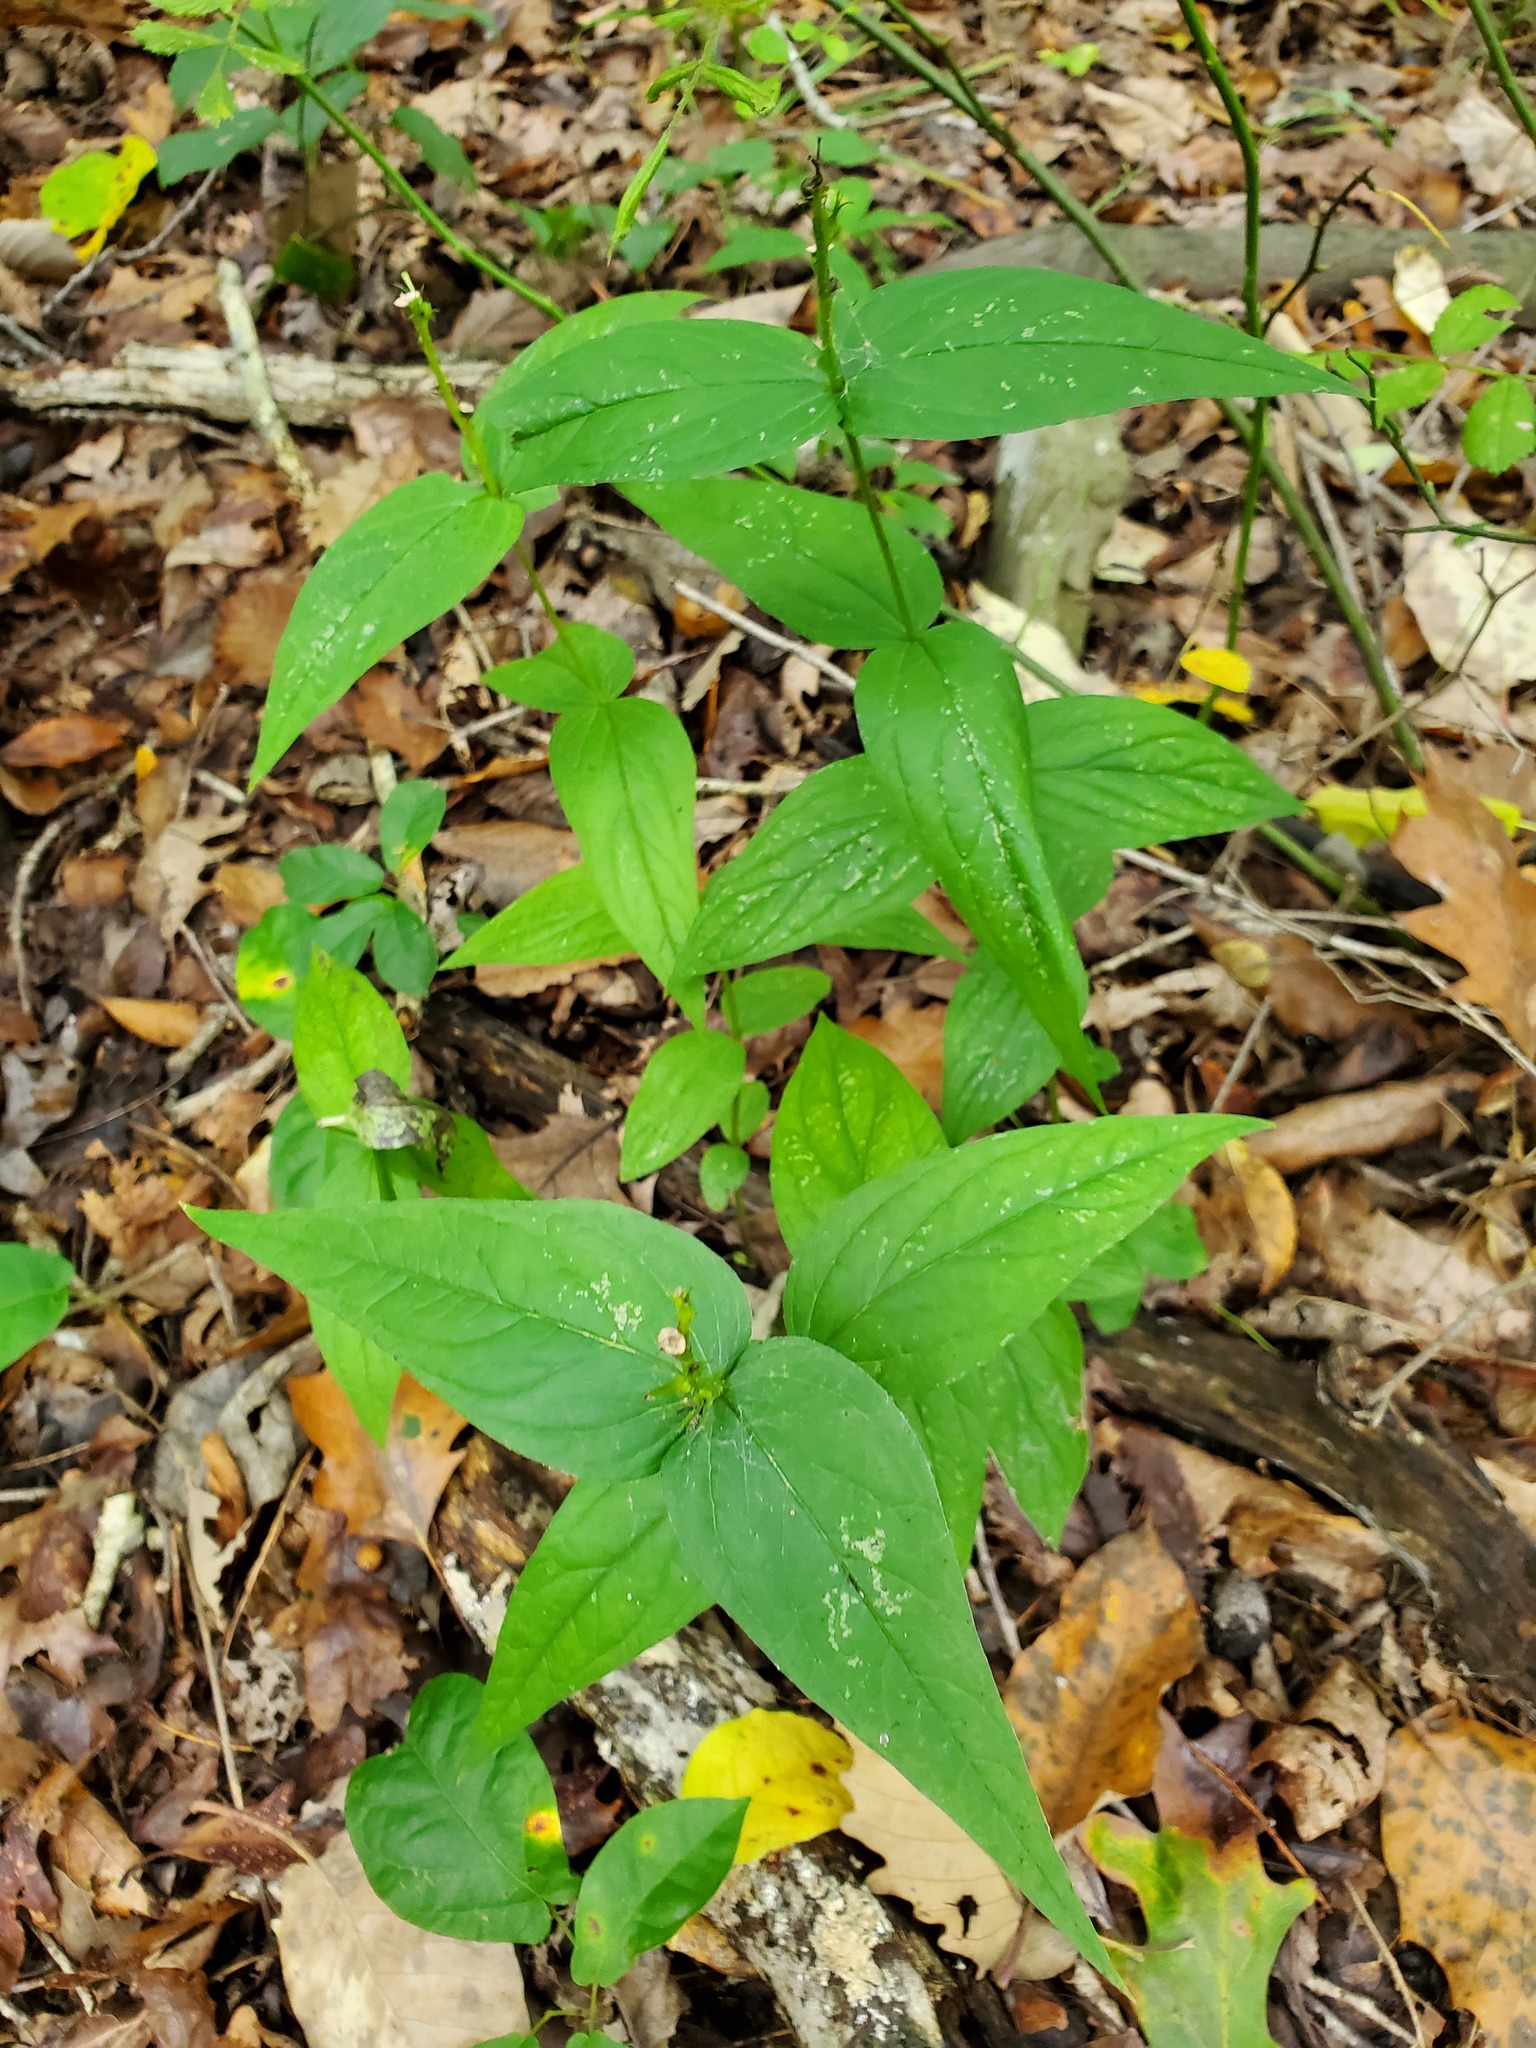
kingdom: Plantae
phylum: Tracheophyta
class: Magnoliopsida
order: Gentianales
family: Loganiaceae
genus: Spigelia
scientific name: Spigelia marilandica
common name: Indian-pink
